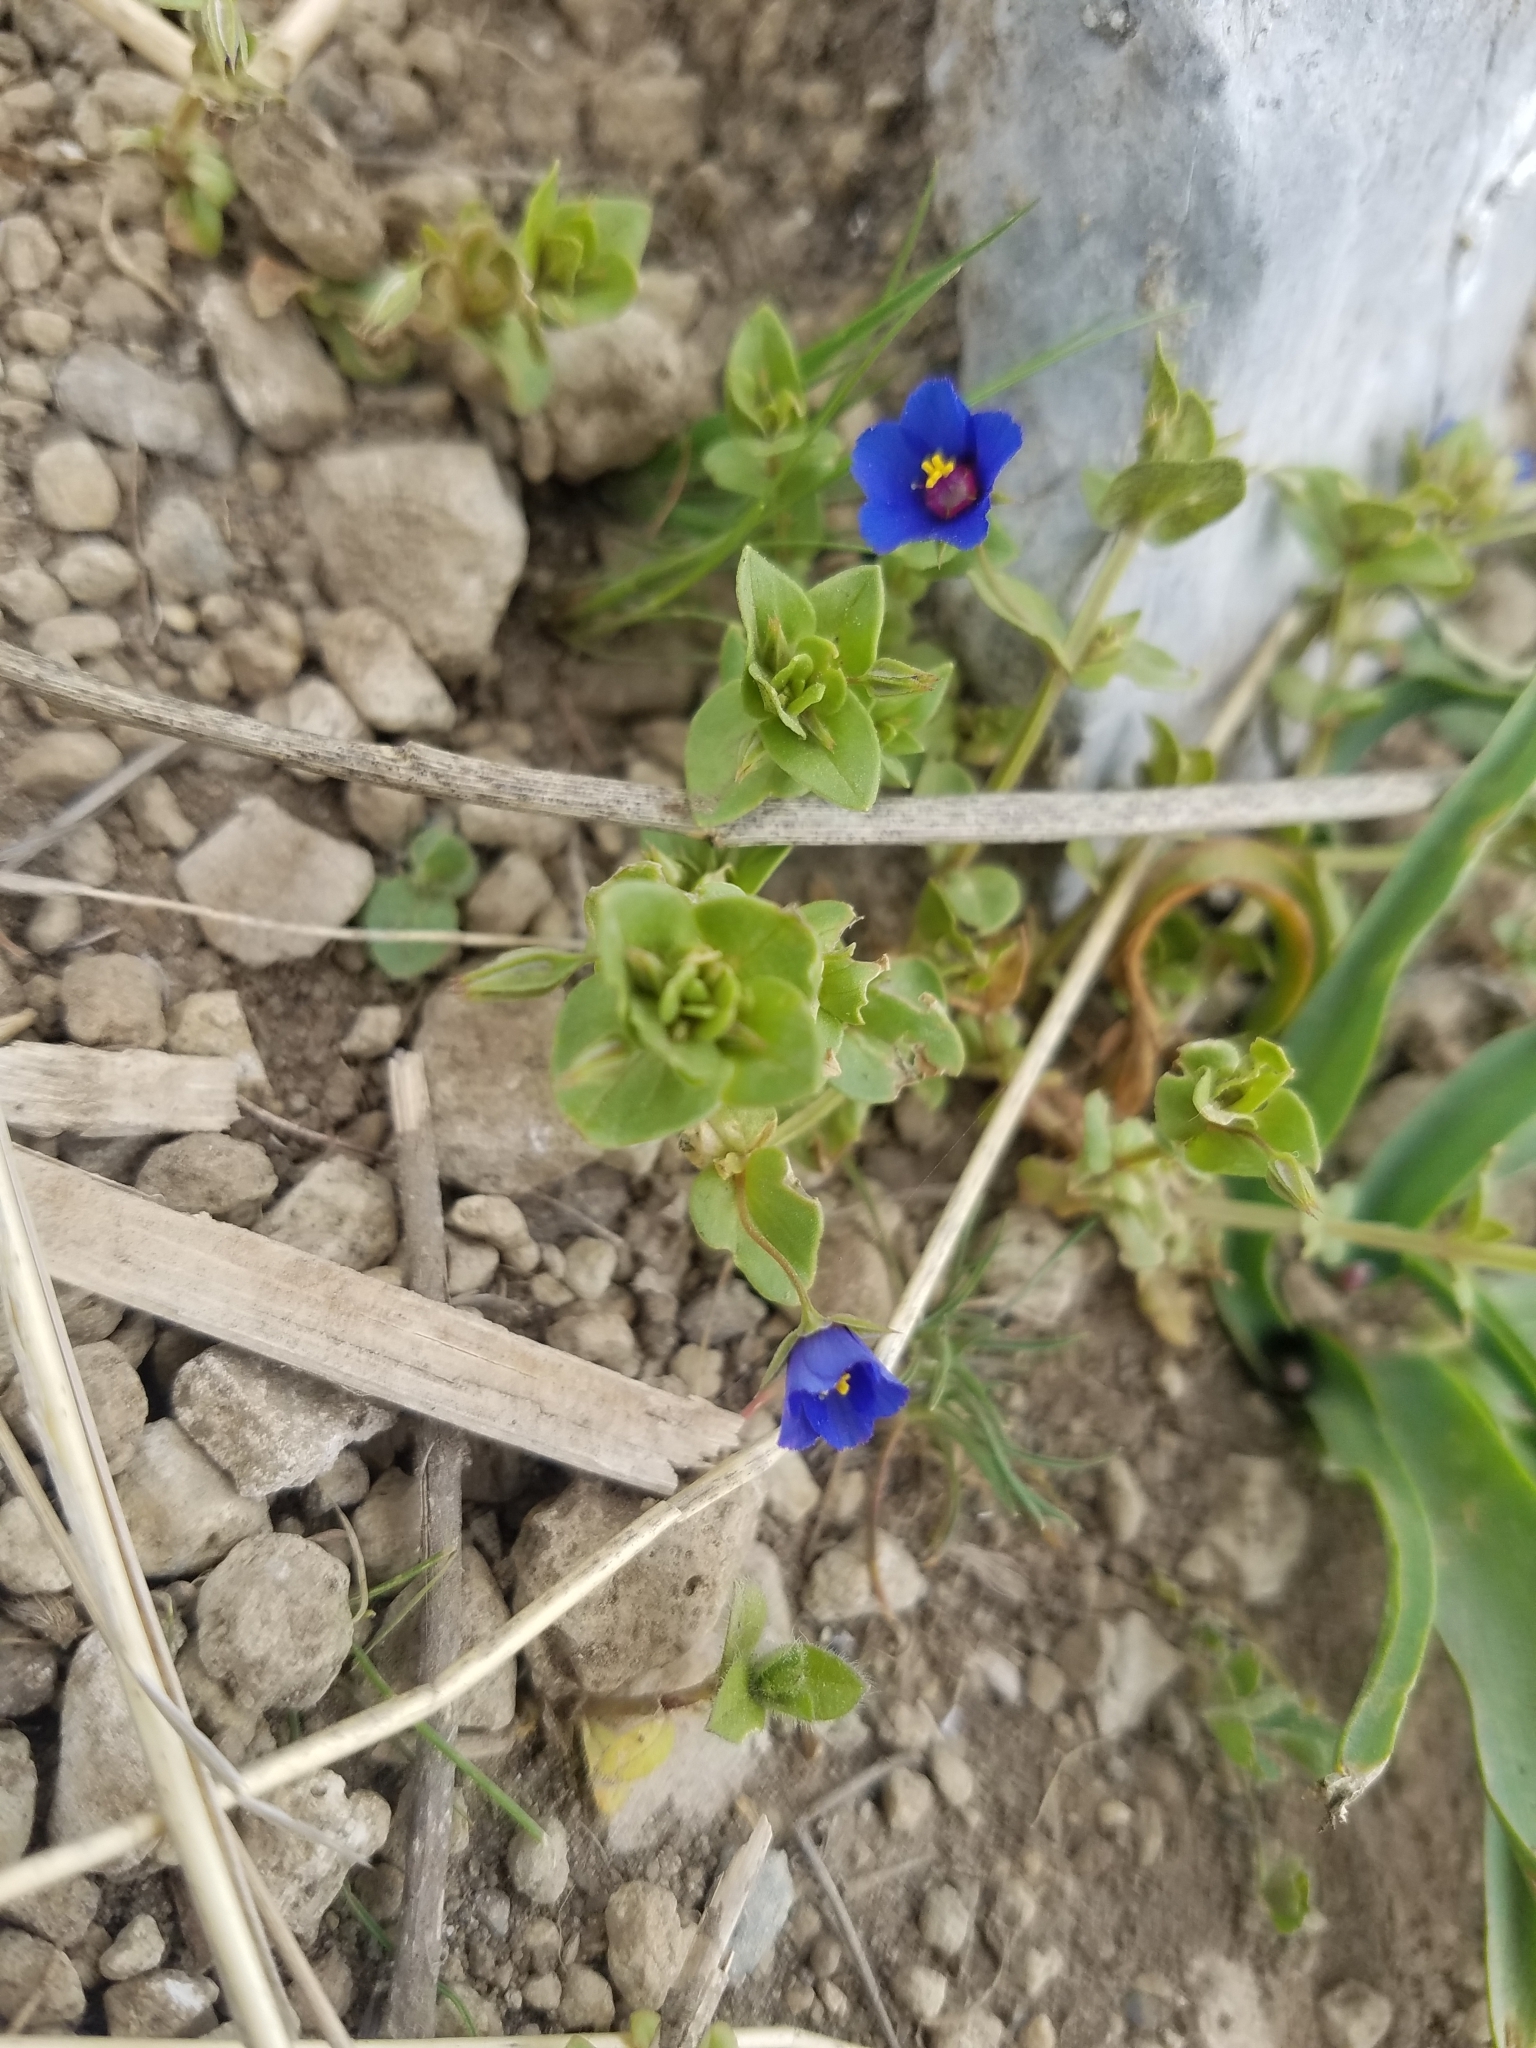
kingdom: Plantae
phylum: Tracheophyta
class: Magnoliopsida
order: Ericales
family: Primulaceae
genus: Lysimachia
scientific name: Lysimachia loeflingii
